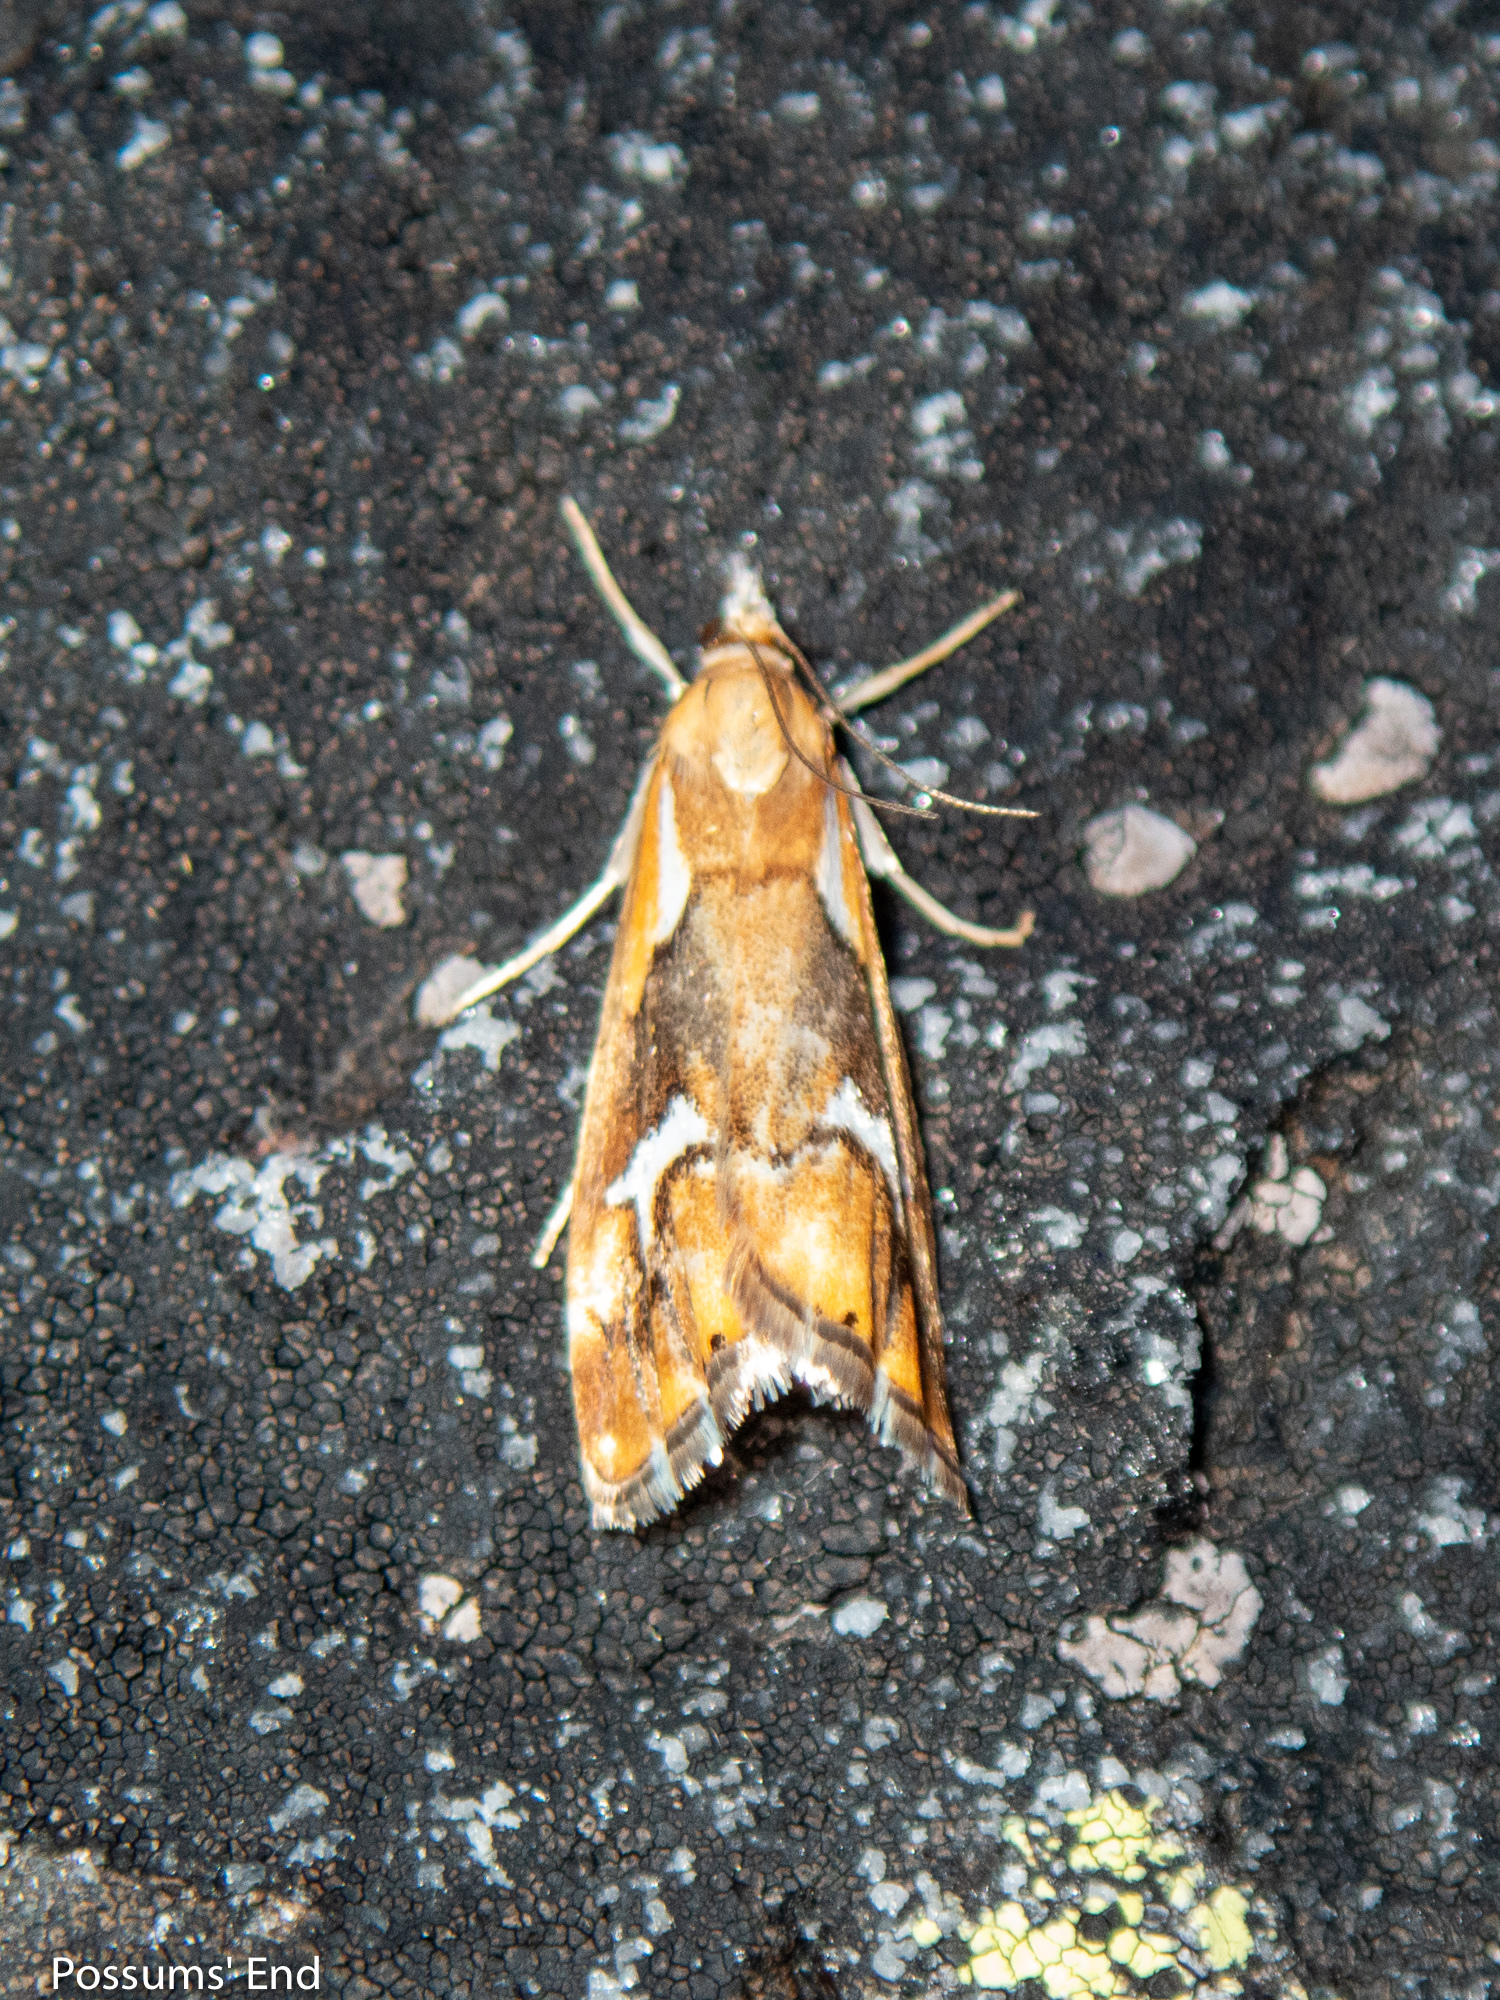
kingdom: Animalia
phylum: Arthropoda
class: Insecta
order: Lepidoptera
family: Crambidae
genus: Glaucocharis
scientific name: Glaucocharis interruptus
